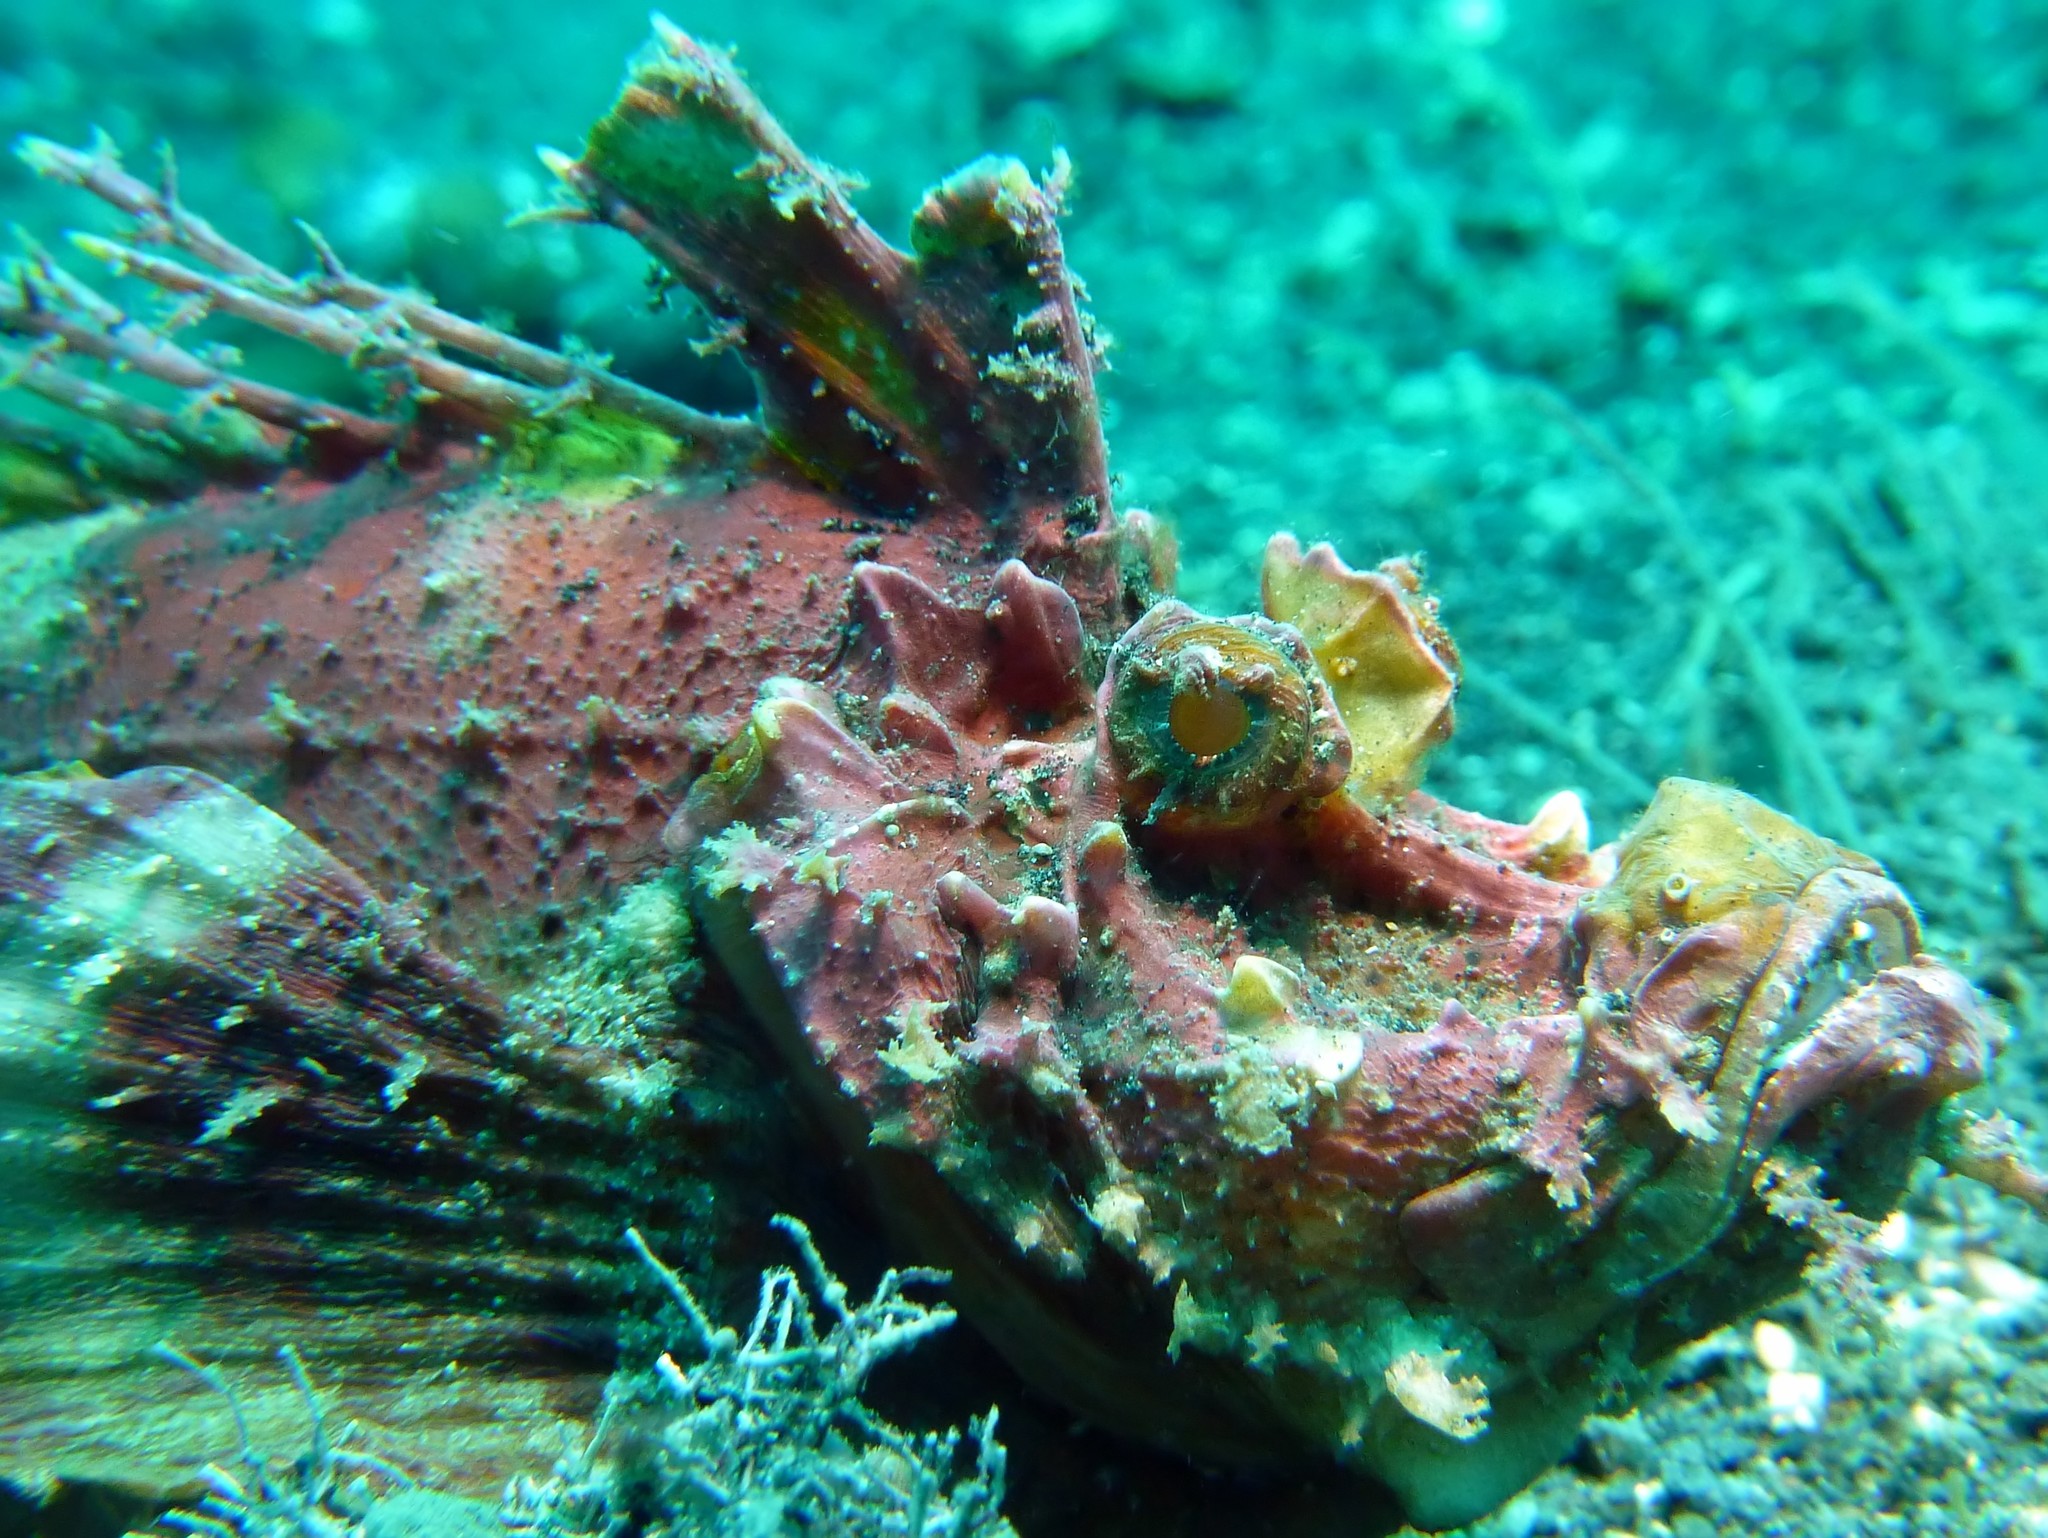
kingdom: Animalia
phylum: Chordata
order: Scorpaeniformes
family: Synanceiidae
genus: Inimicus
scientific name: Inimicus didactylus
